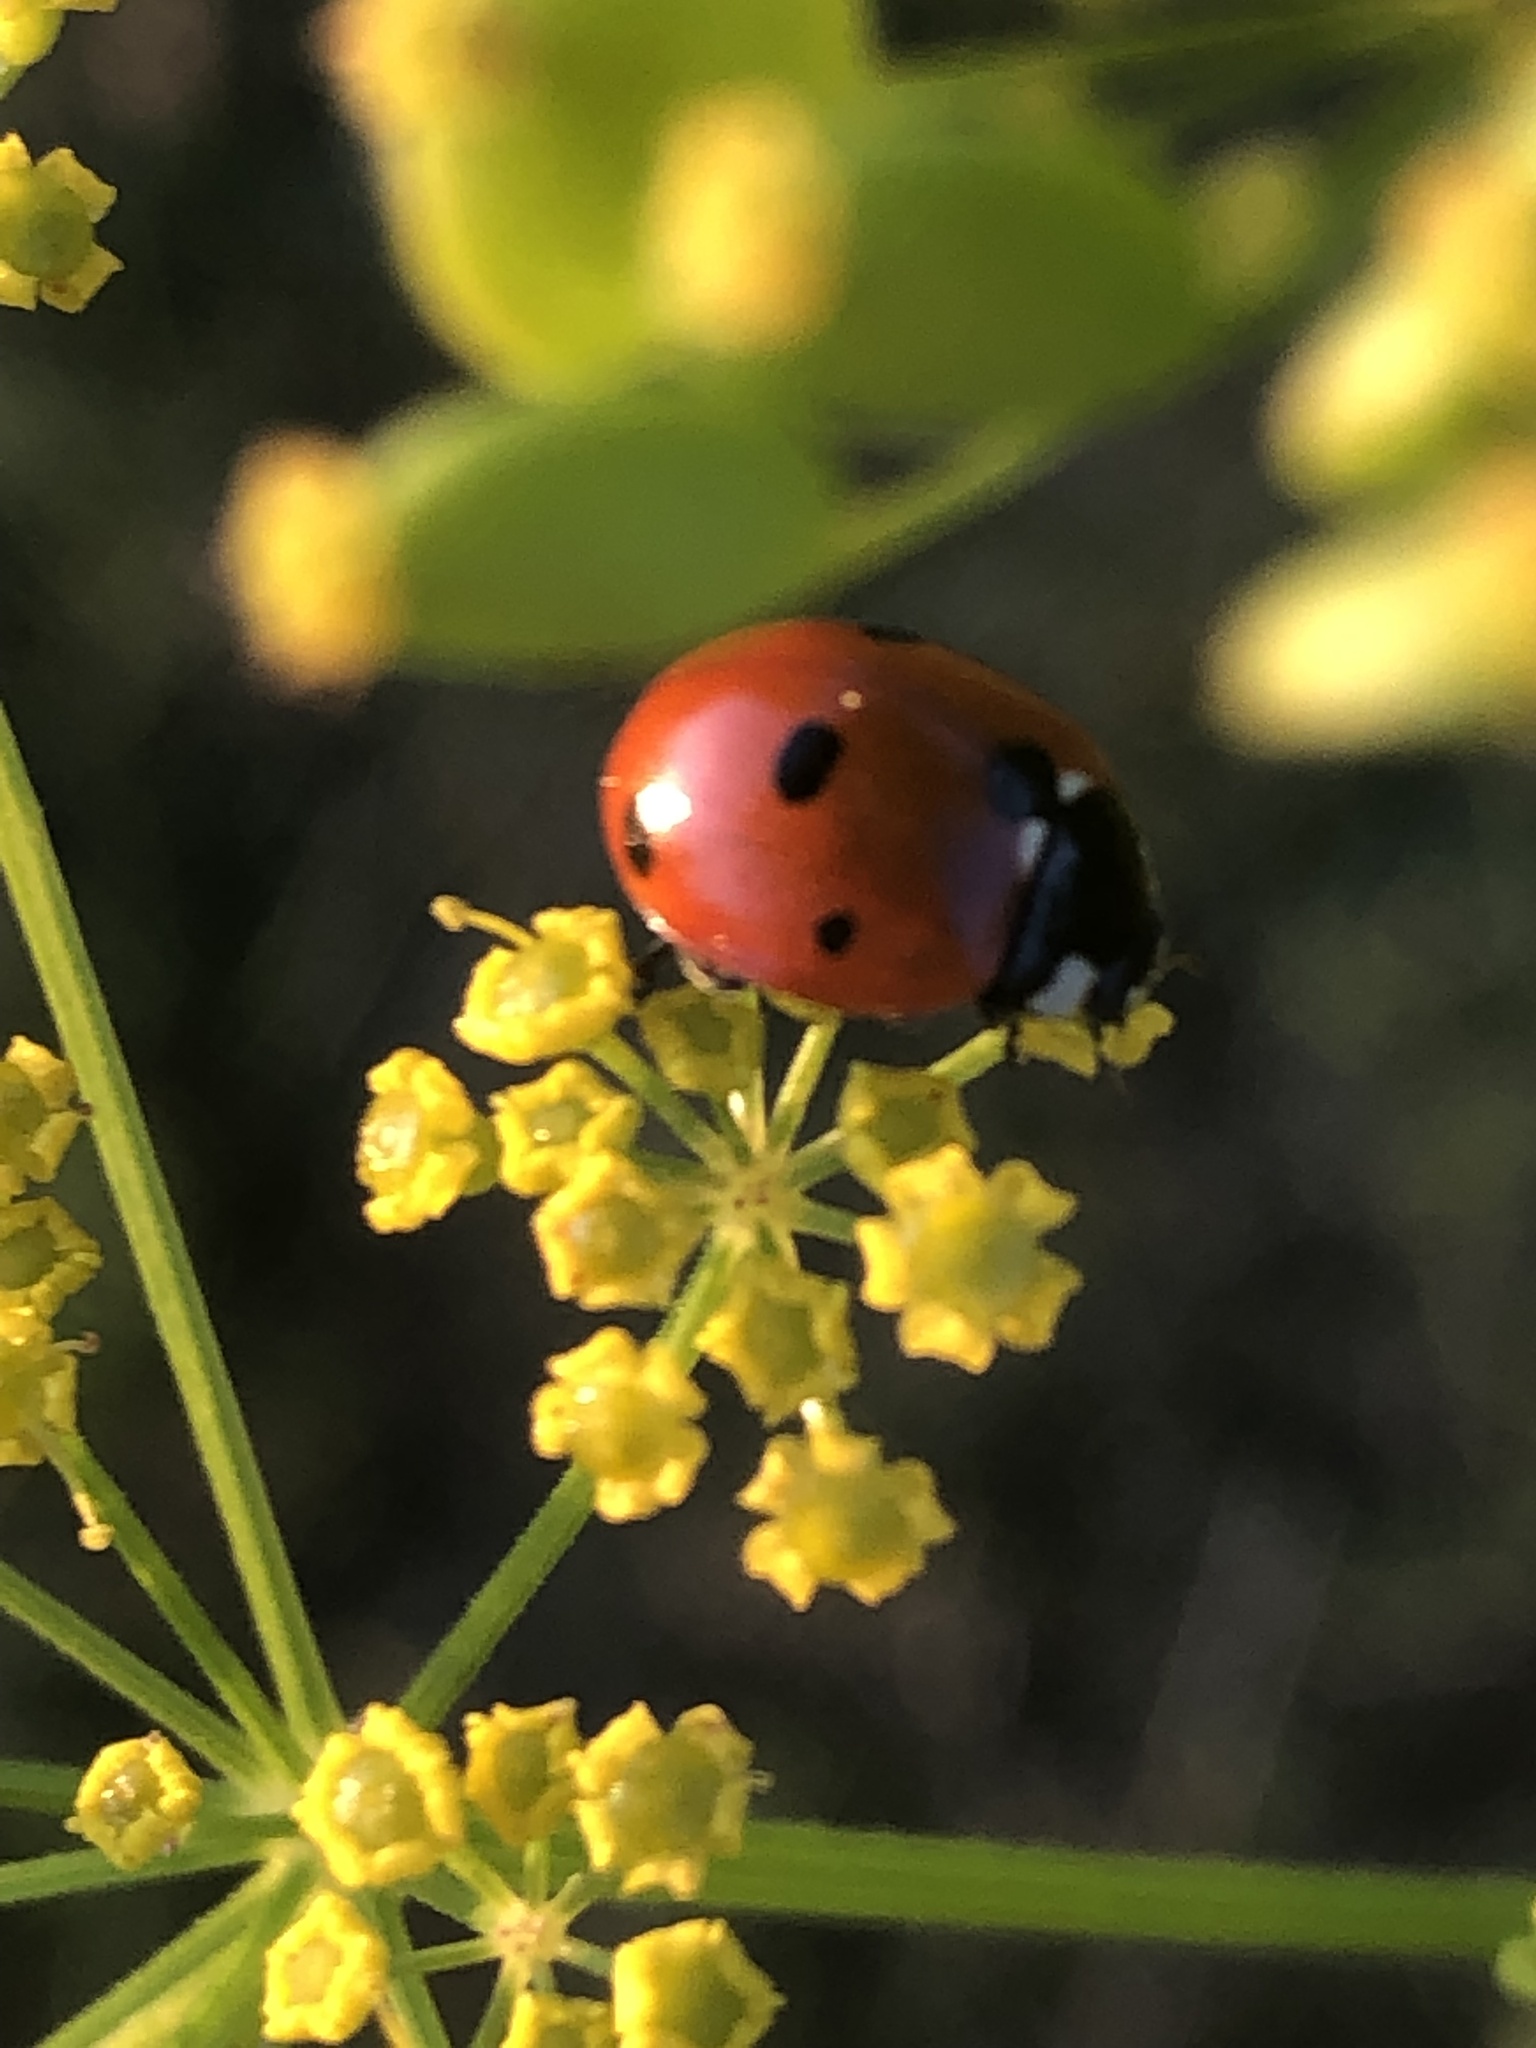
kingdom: Animalia
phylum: Arthropoda
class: Insecta
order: Coleoptera
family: Coccinellidae
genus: Coccinella
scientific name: Coccinella septempunctata
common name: Sevenspotted lady beetle
